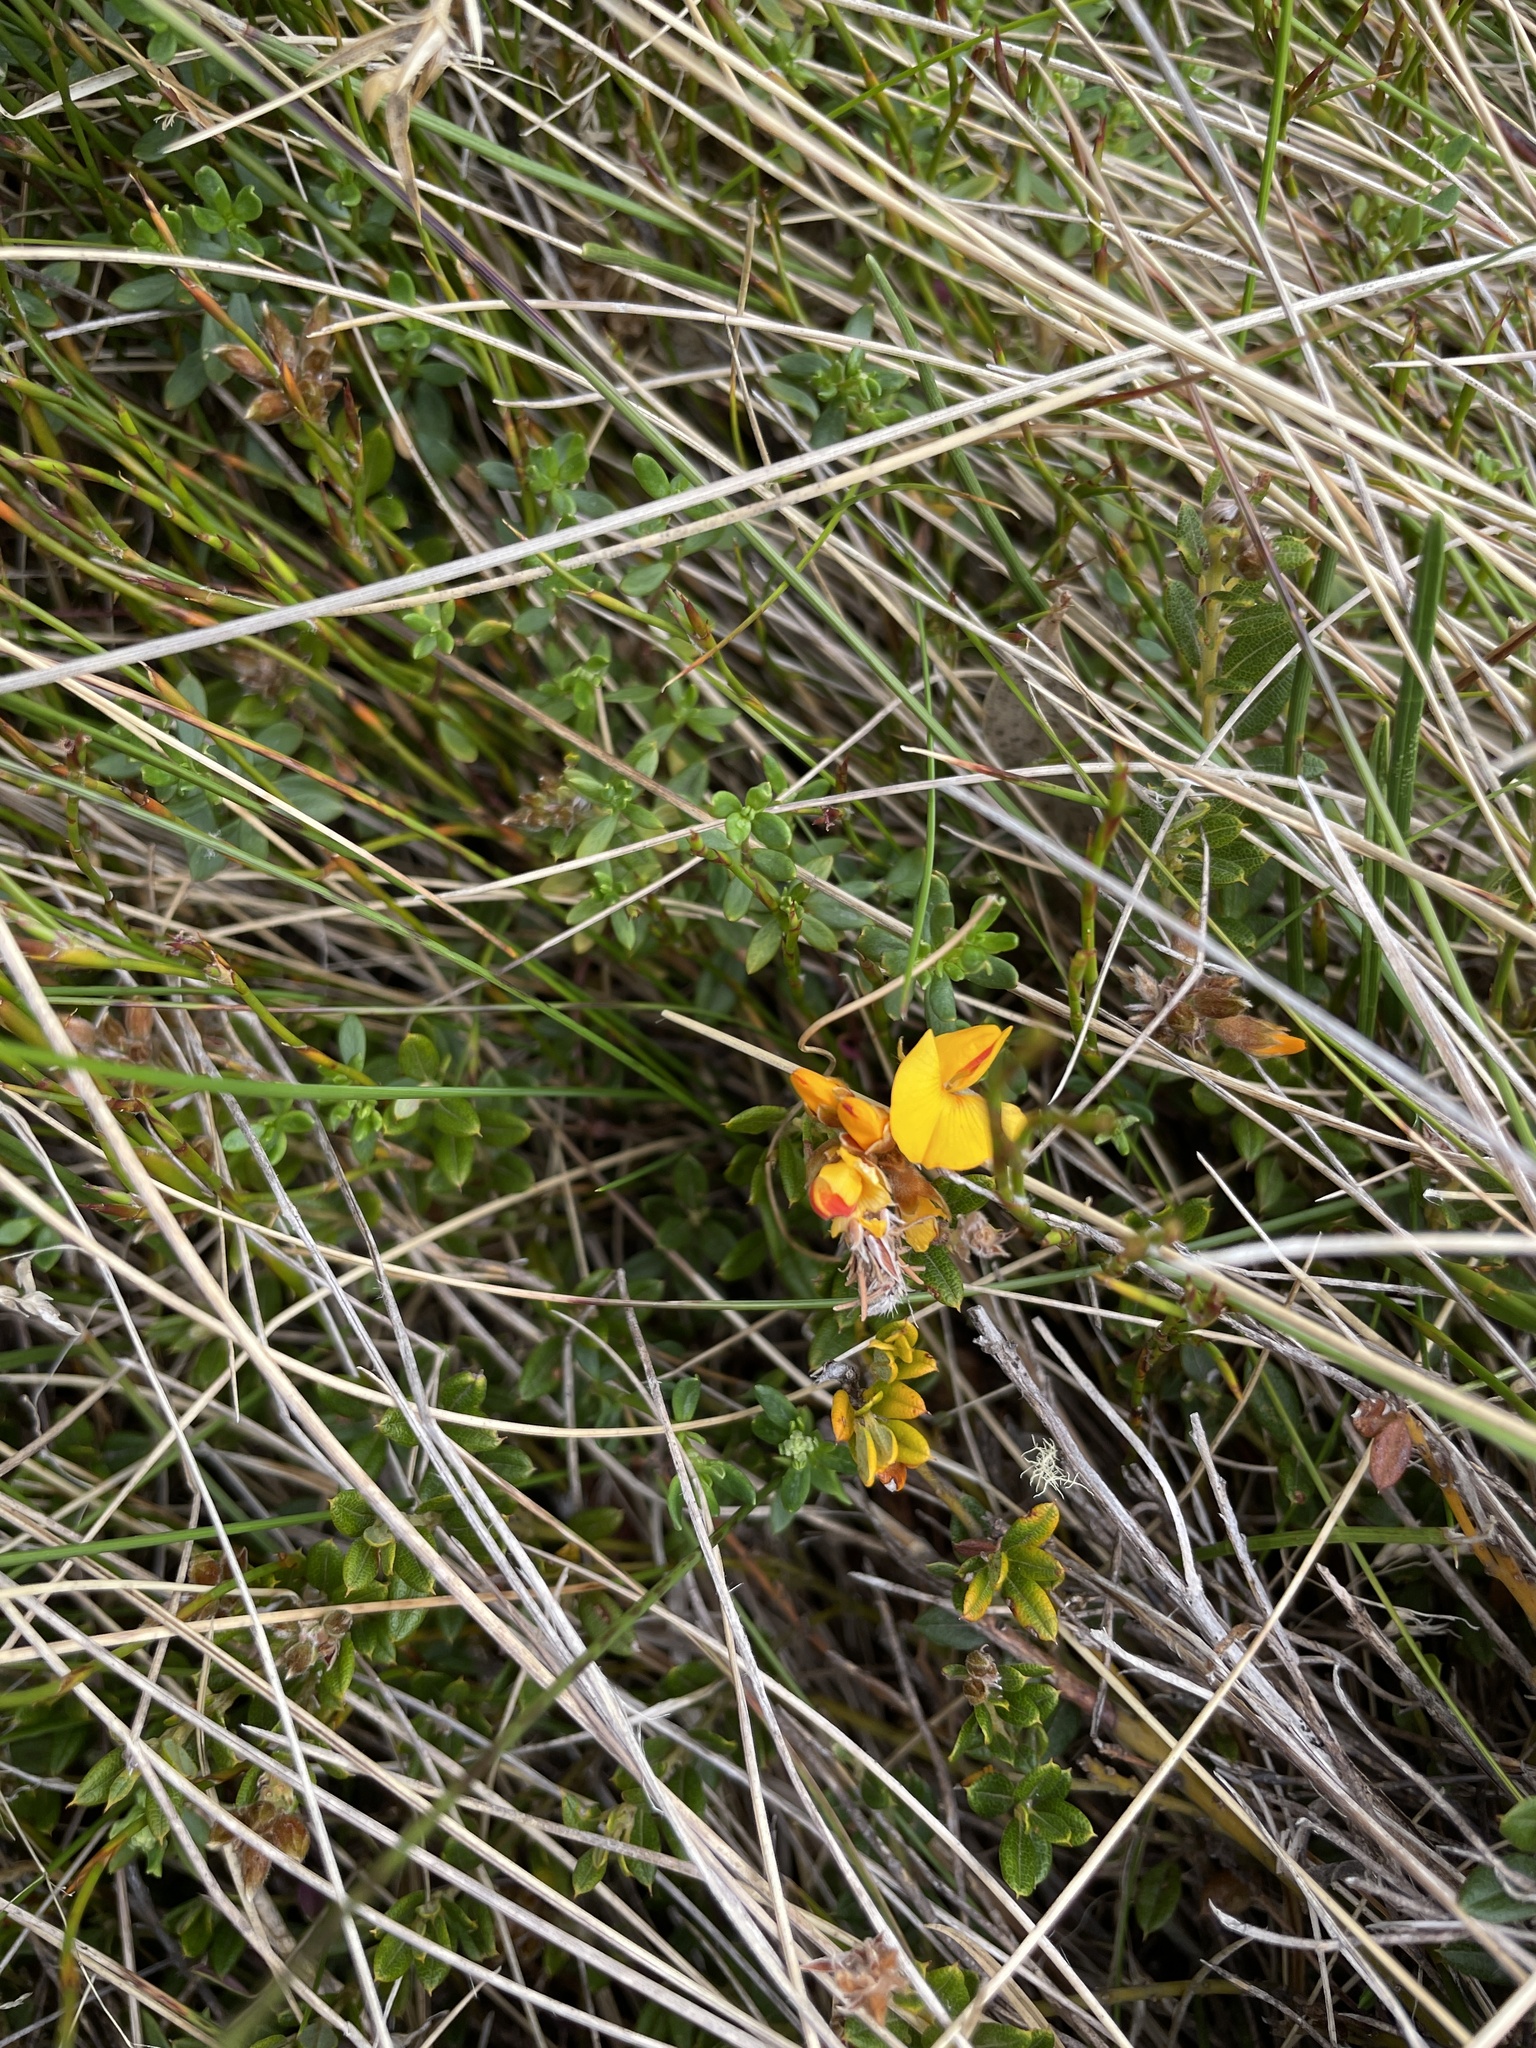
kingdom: Plantae
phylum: Tracheophyta
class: Magnoliopsida
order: Fabales
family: Fabaceae
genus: Oxylobium
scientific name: Oxylobium ellipticum
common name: Golden shaggy-pea
